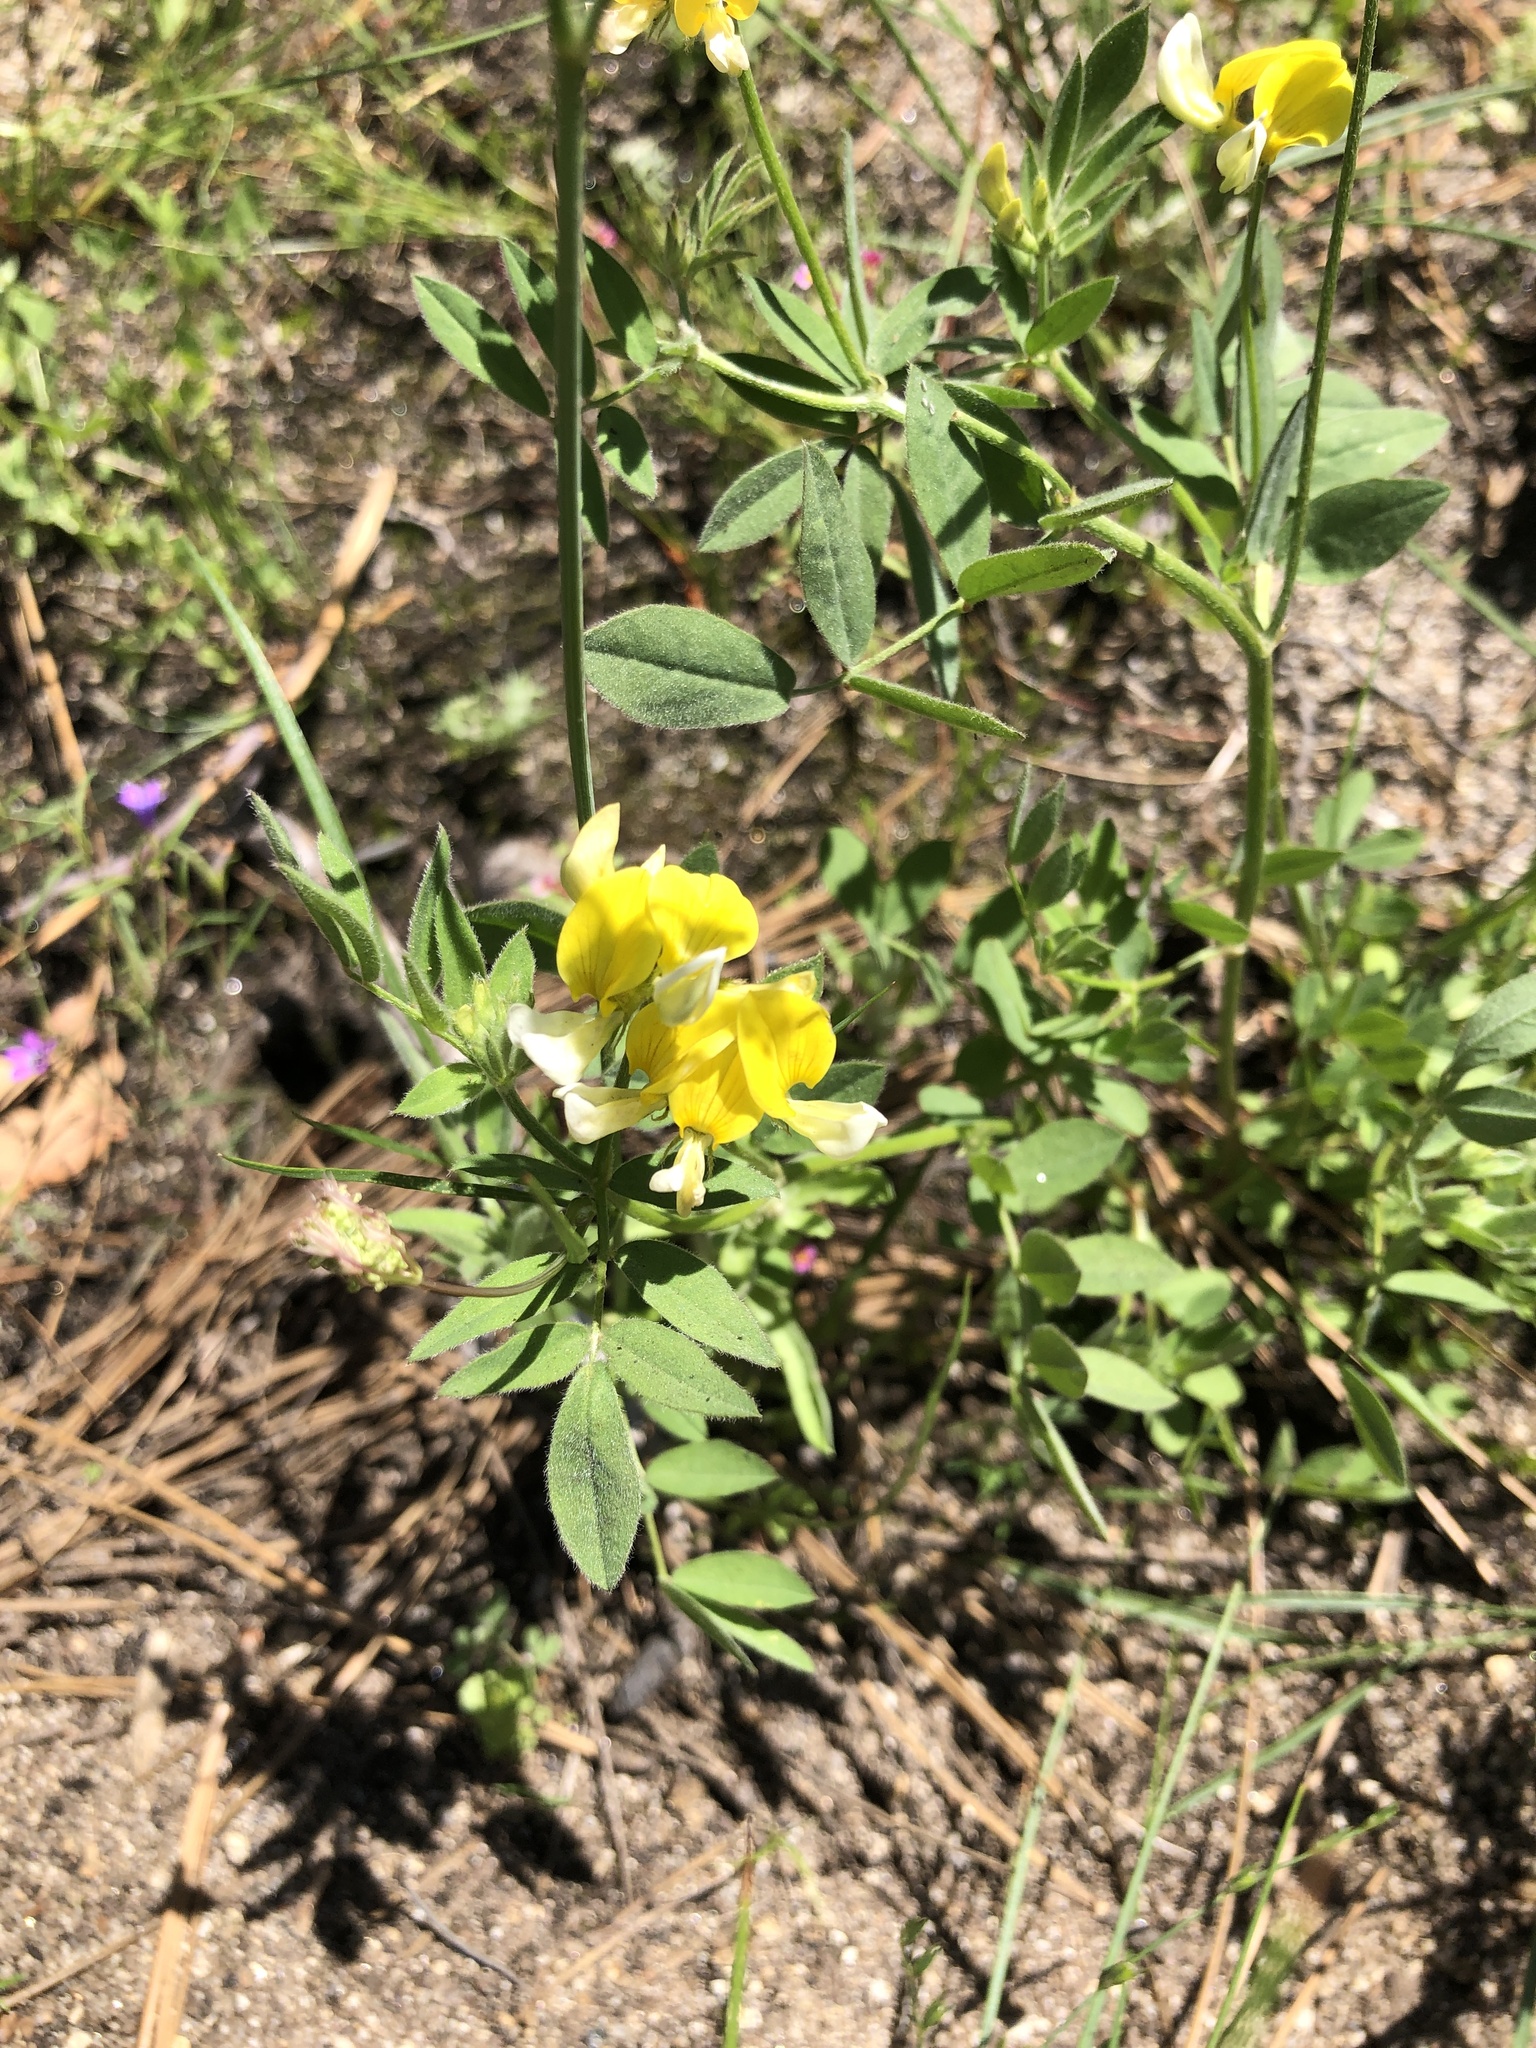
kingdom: Plantae
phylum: Tracheophyta
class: Magnoliopsida
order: Fabales
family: Fabaceae
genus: Hosackia
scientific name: Hosackia oblongifolia
